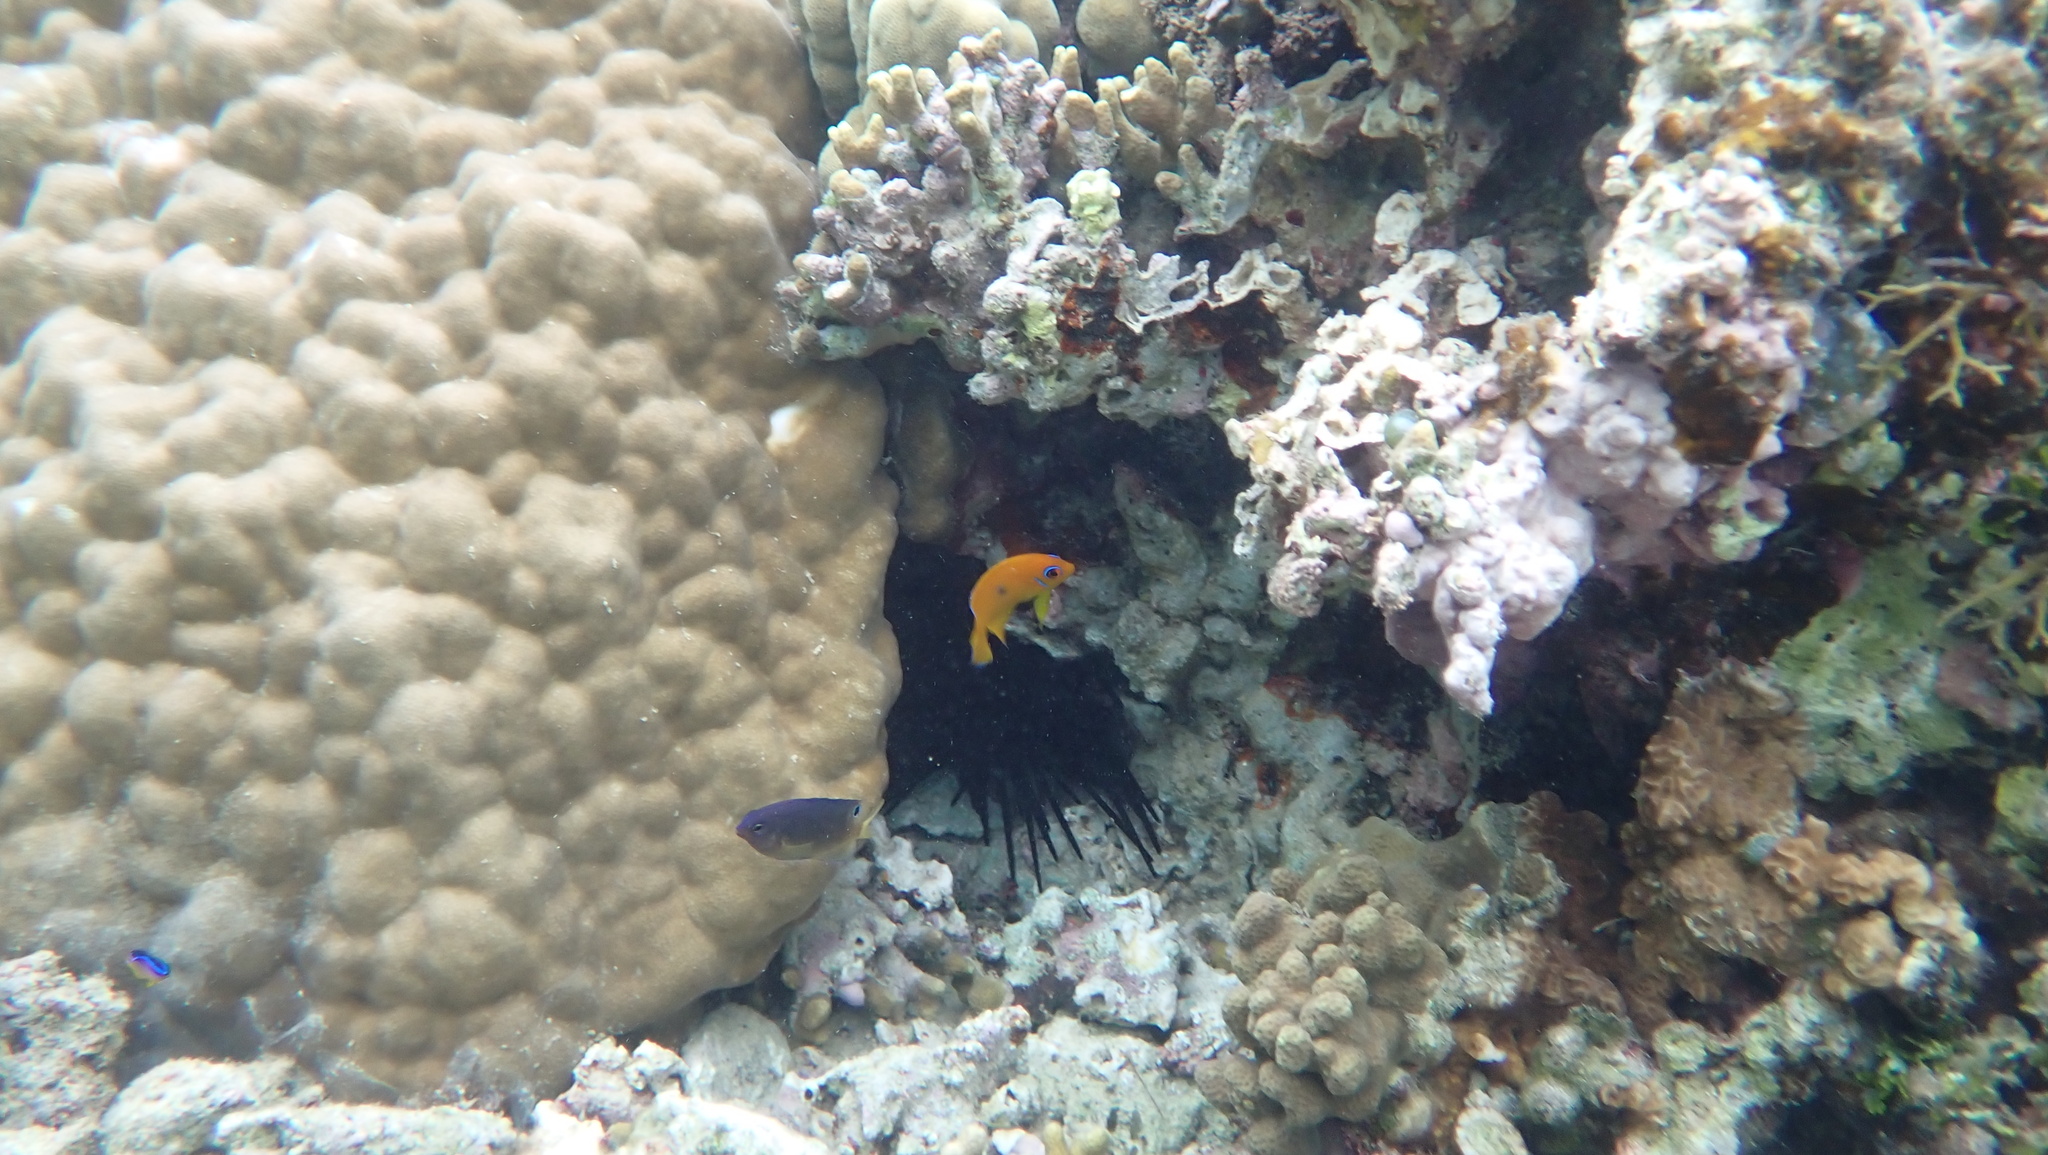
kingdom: Animalia
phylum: Chordata
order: Perciformes
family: Pomacentridae
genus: Pomacentrus
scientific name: Pomacentrus vaiuli
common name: Princess damsel
